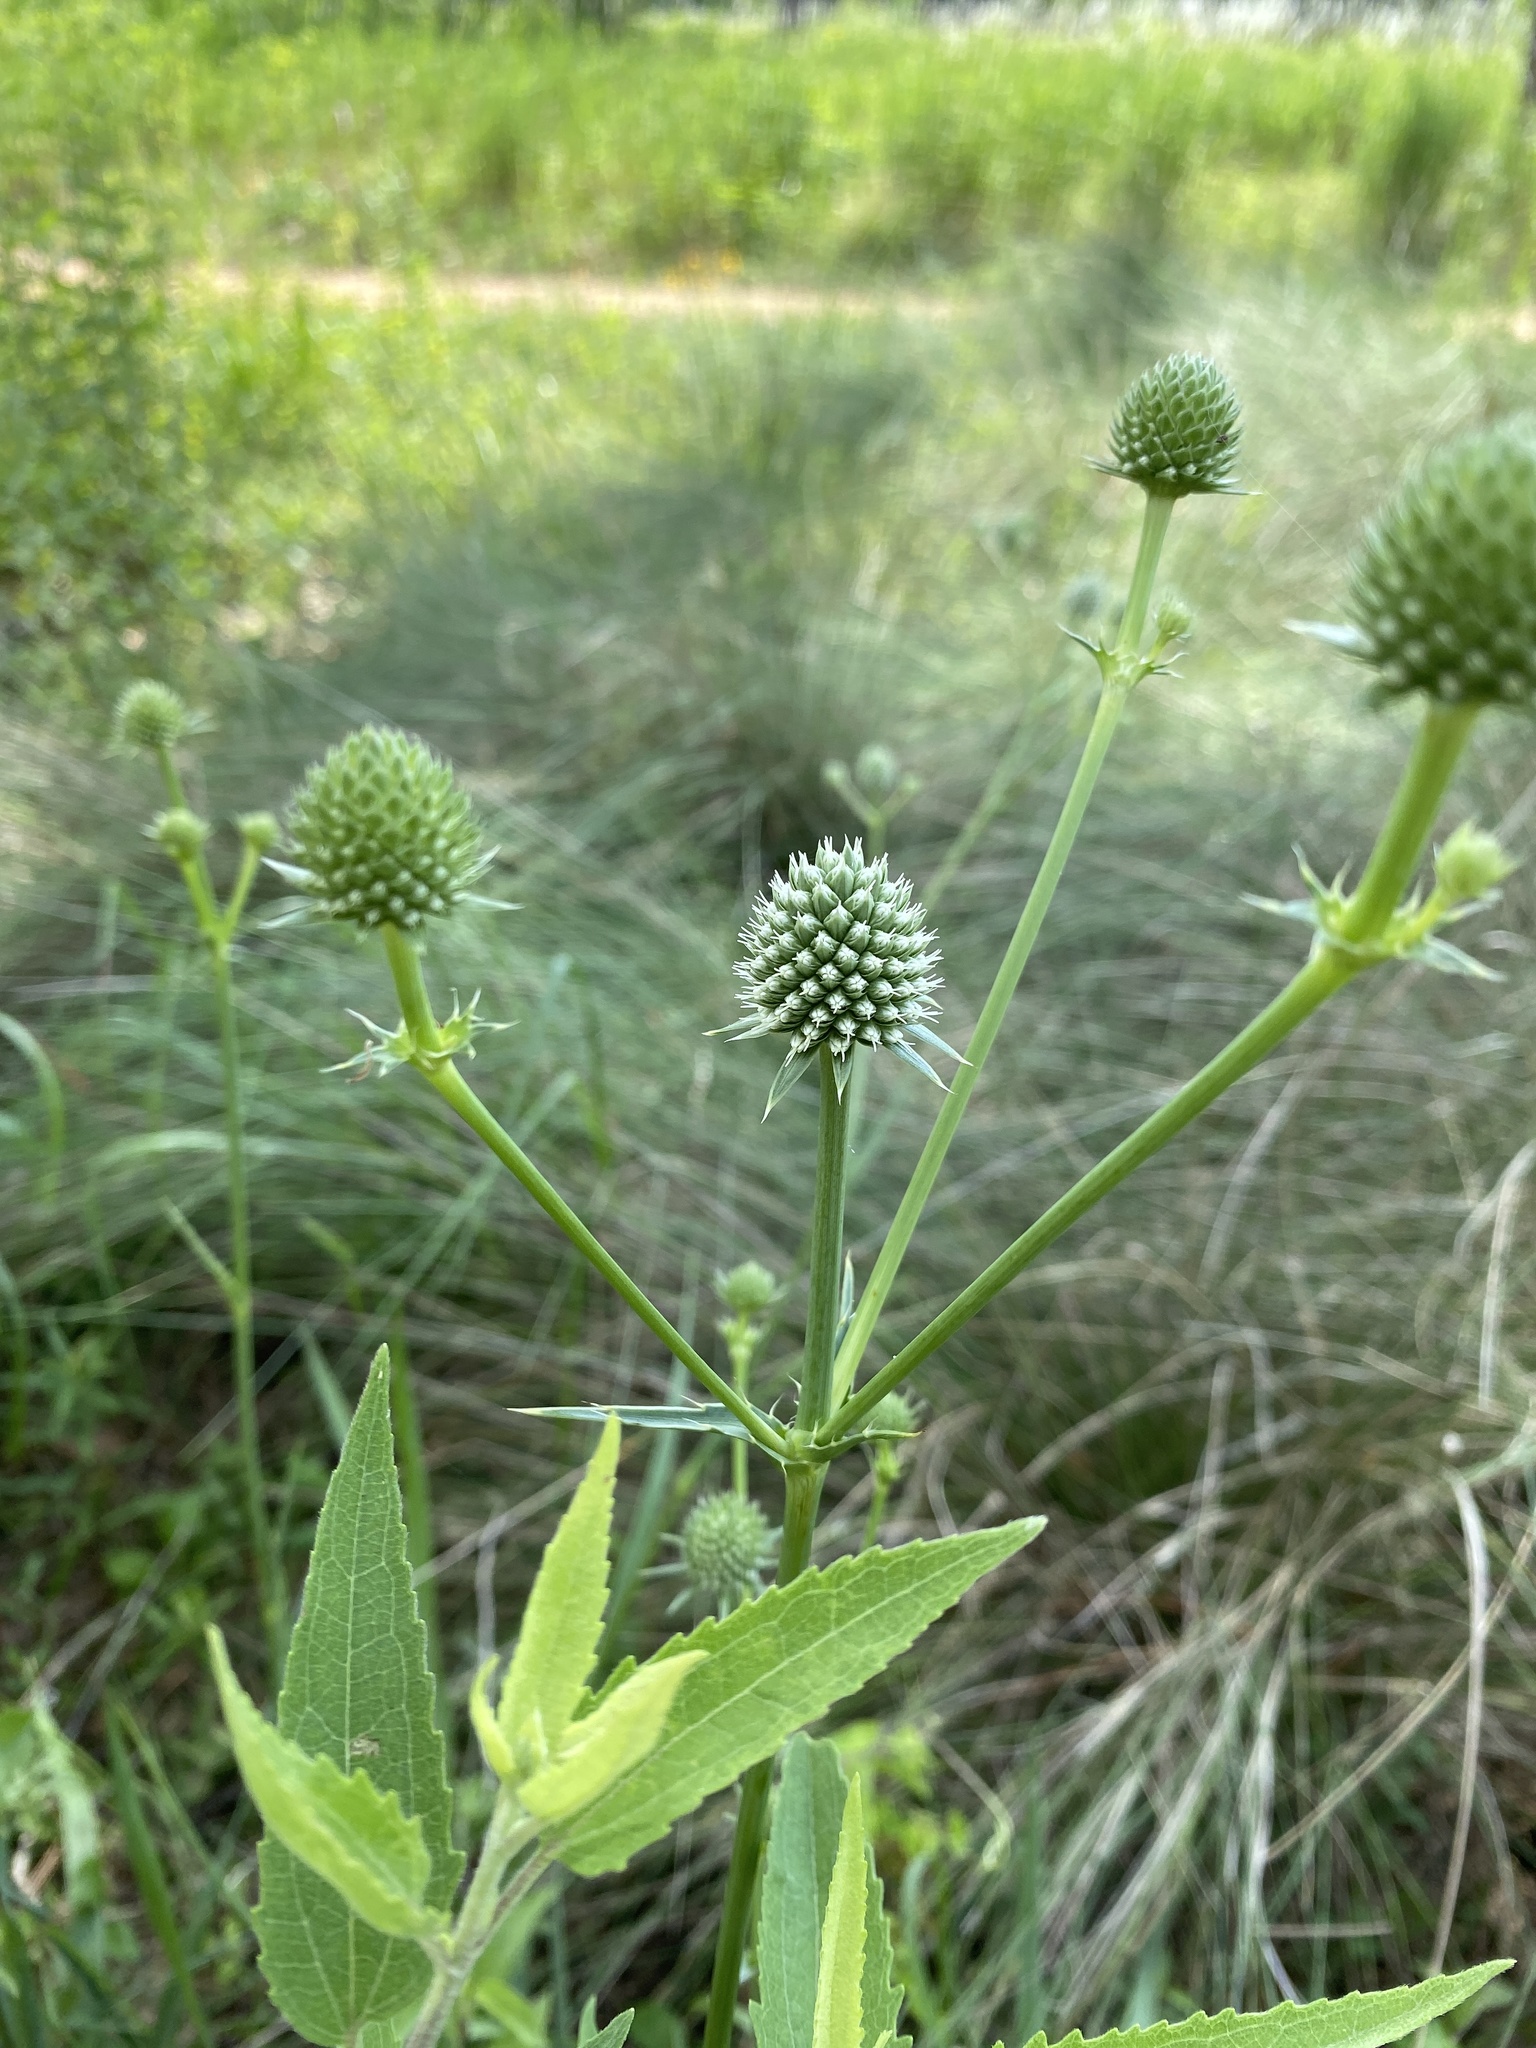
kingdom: Plantae
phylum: Tracheophyta
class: Magnoliopsida
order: Apiales
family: Apiaceae
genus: Eryngium
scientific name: Eryngium yuccifolium
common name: Button eryngo
